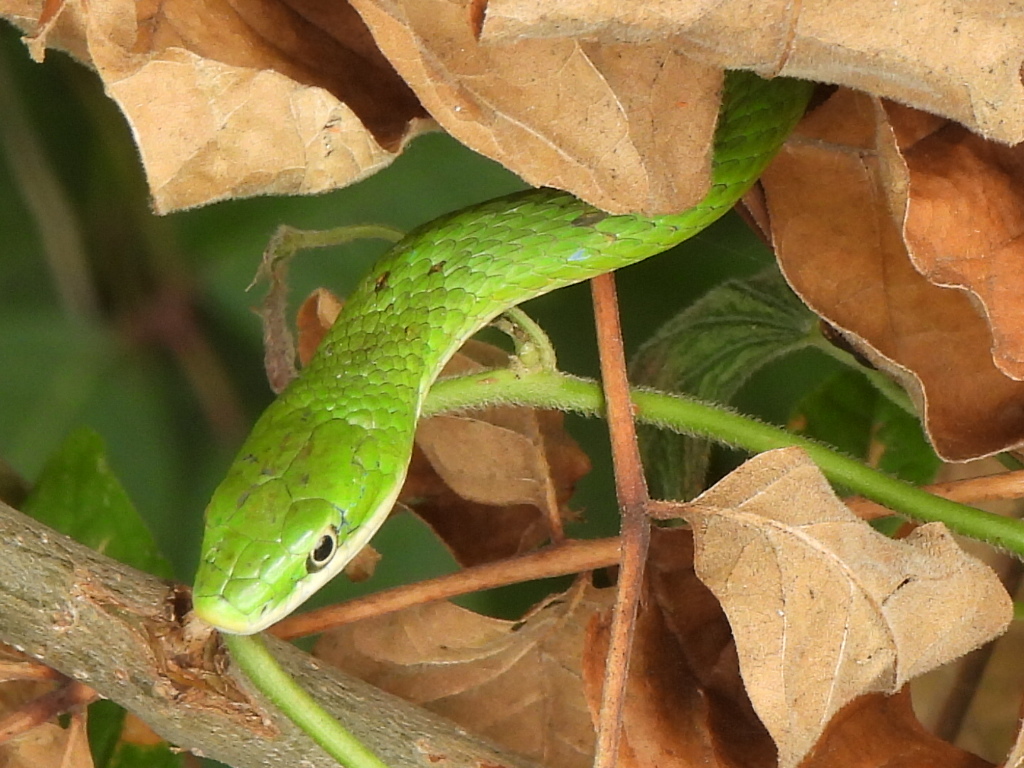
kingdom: Animalia
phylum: Chordata
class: Squamata
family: Colubridae
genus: Opheodrys
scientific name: Opheodrys aestivus
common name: Rough greensnake
